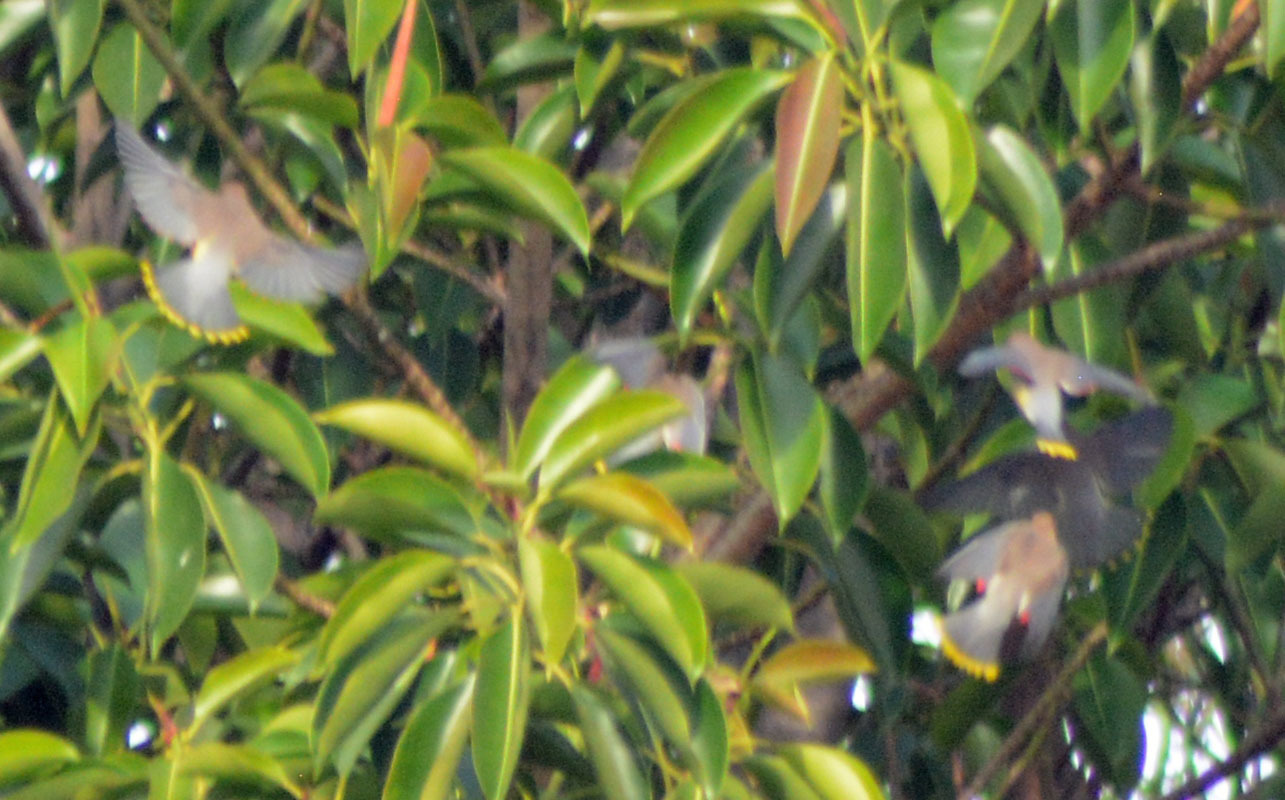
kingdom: Animalia
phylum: Chordata
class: Aves
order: Passeriformes
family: Bombycillidae
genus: Bombycilla
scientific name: Bombycilla cedrorum
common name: Cedar waxwing
